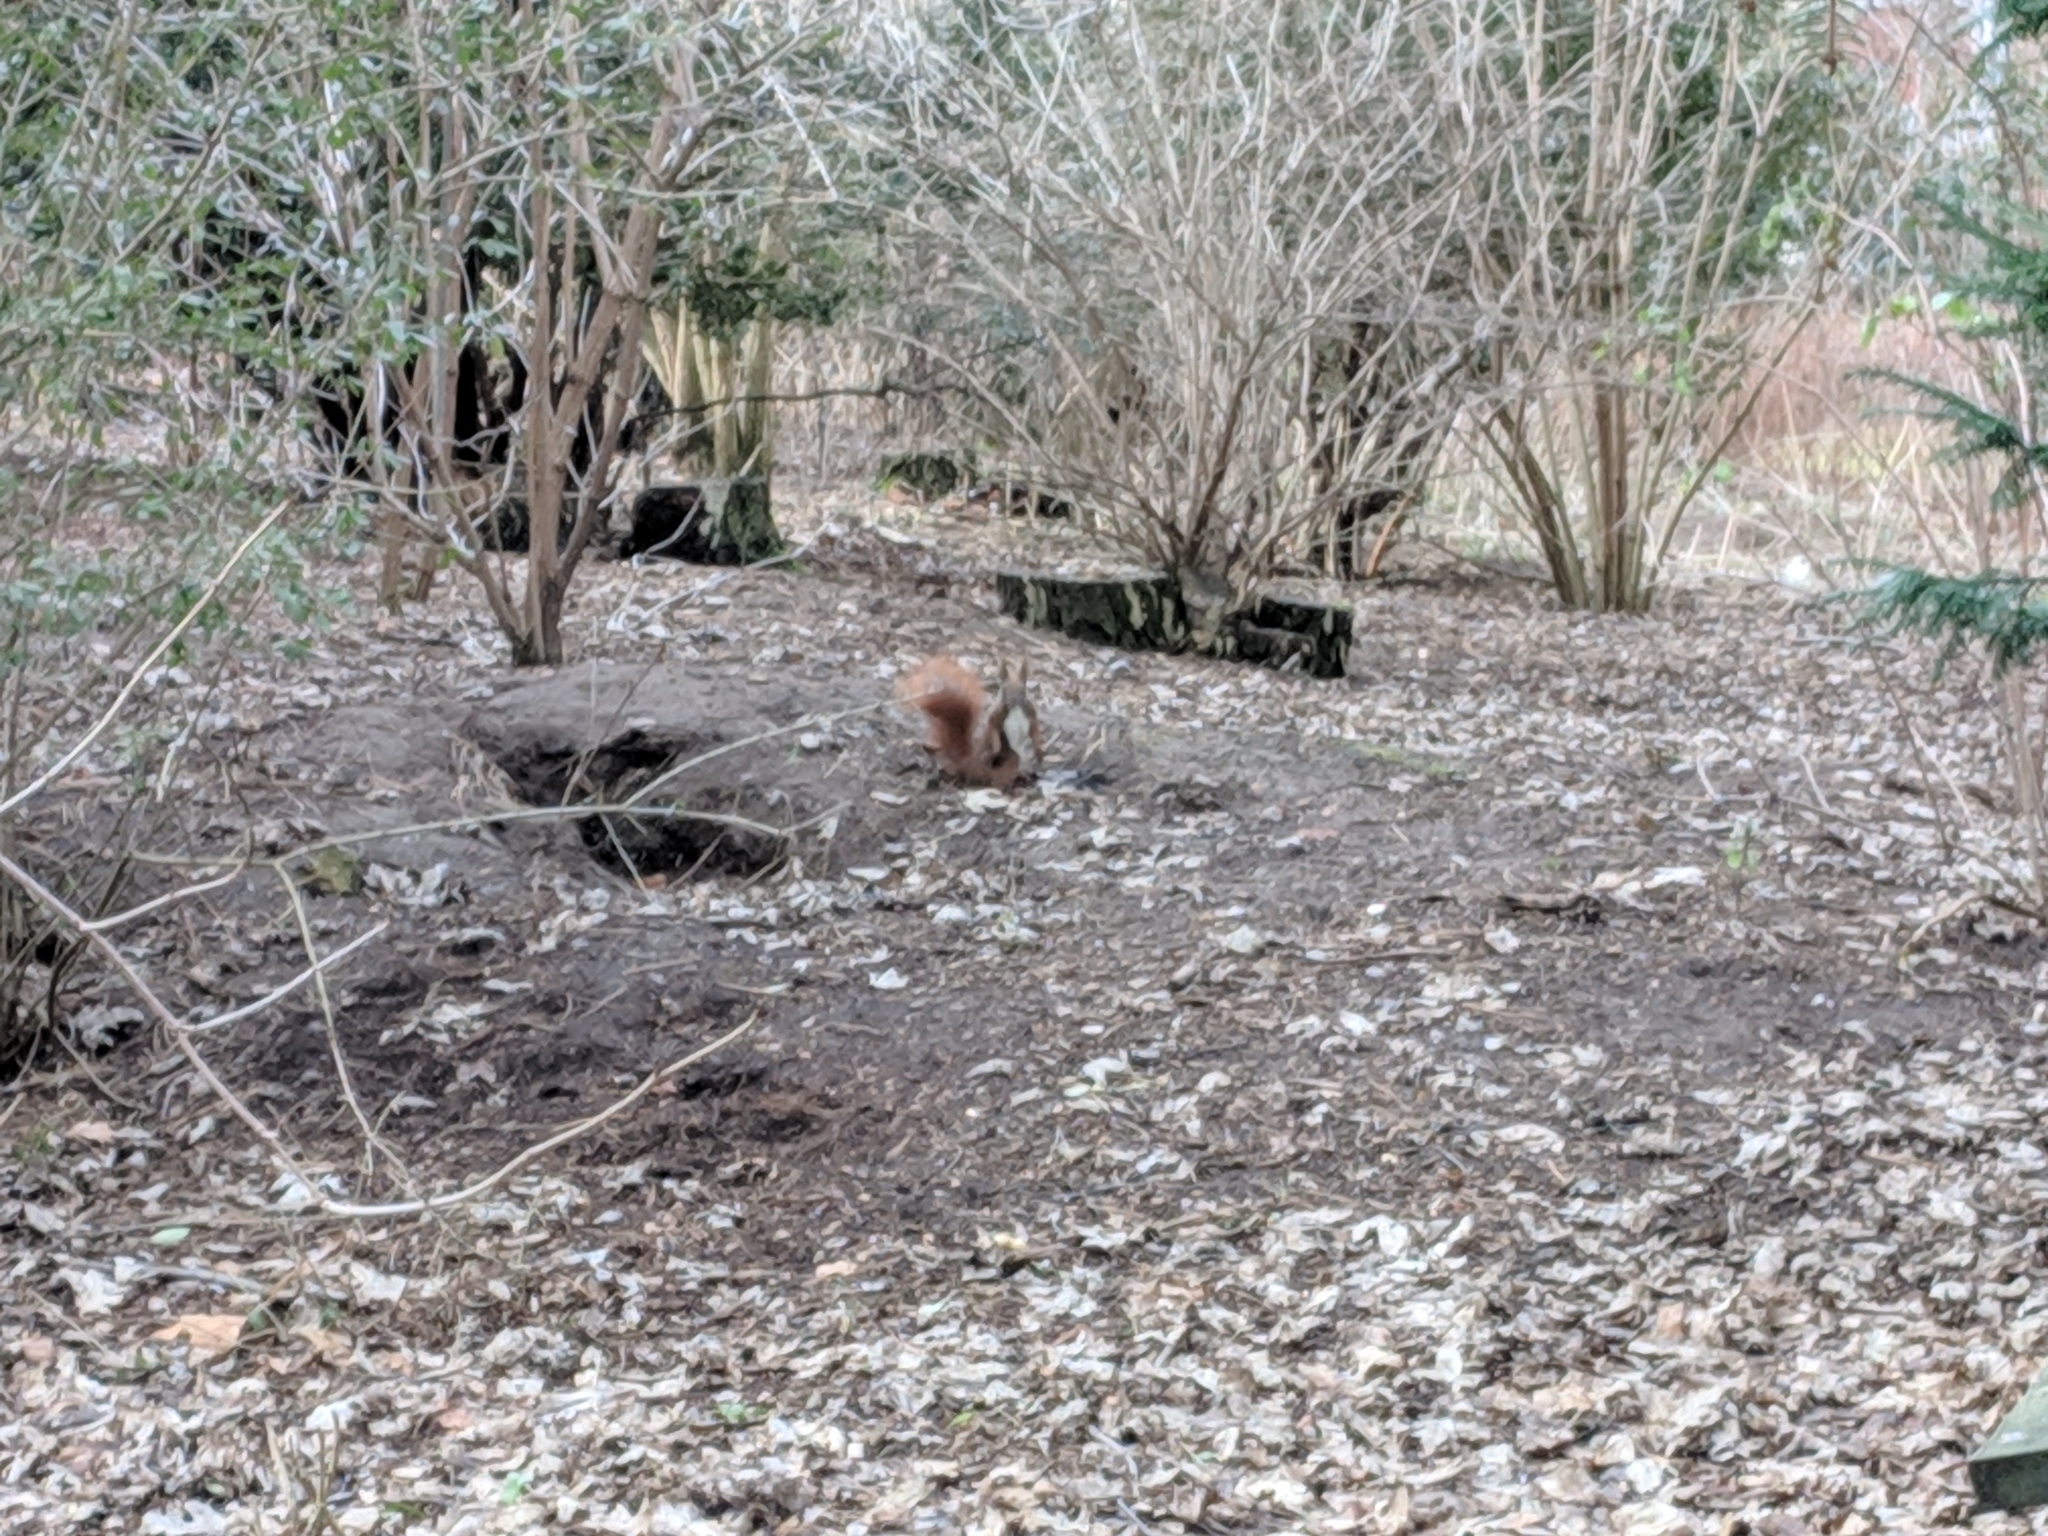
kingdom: Animalia
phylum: Chordata
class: Mammalia
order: Rodentia
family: Sciuridae
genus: Sciurus
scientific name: Sciurus vulgaris
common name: Eurasian red squirrel
